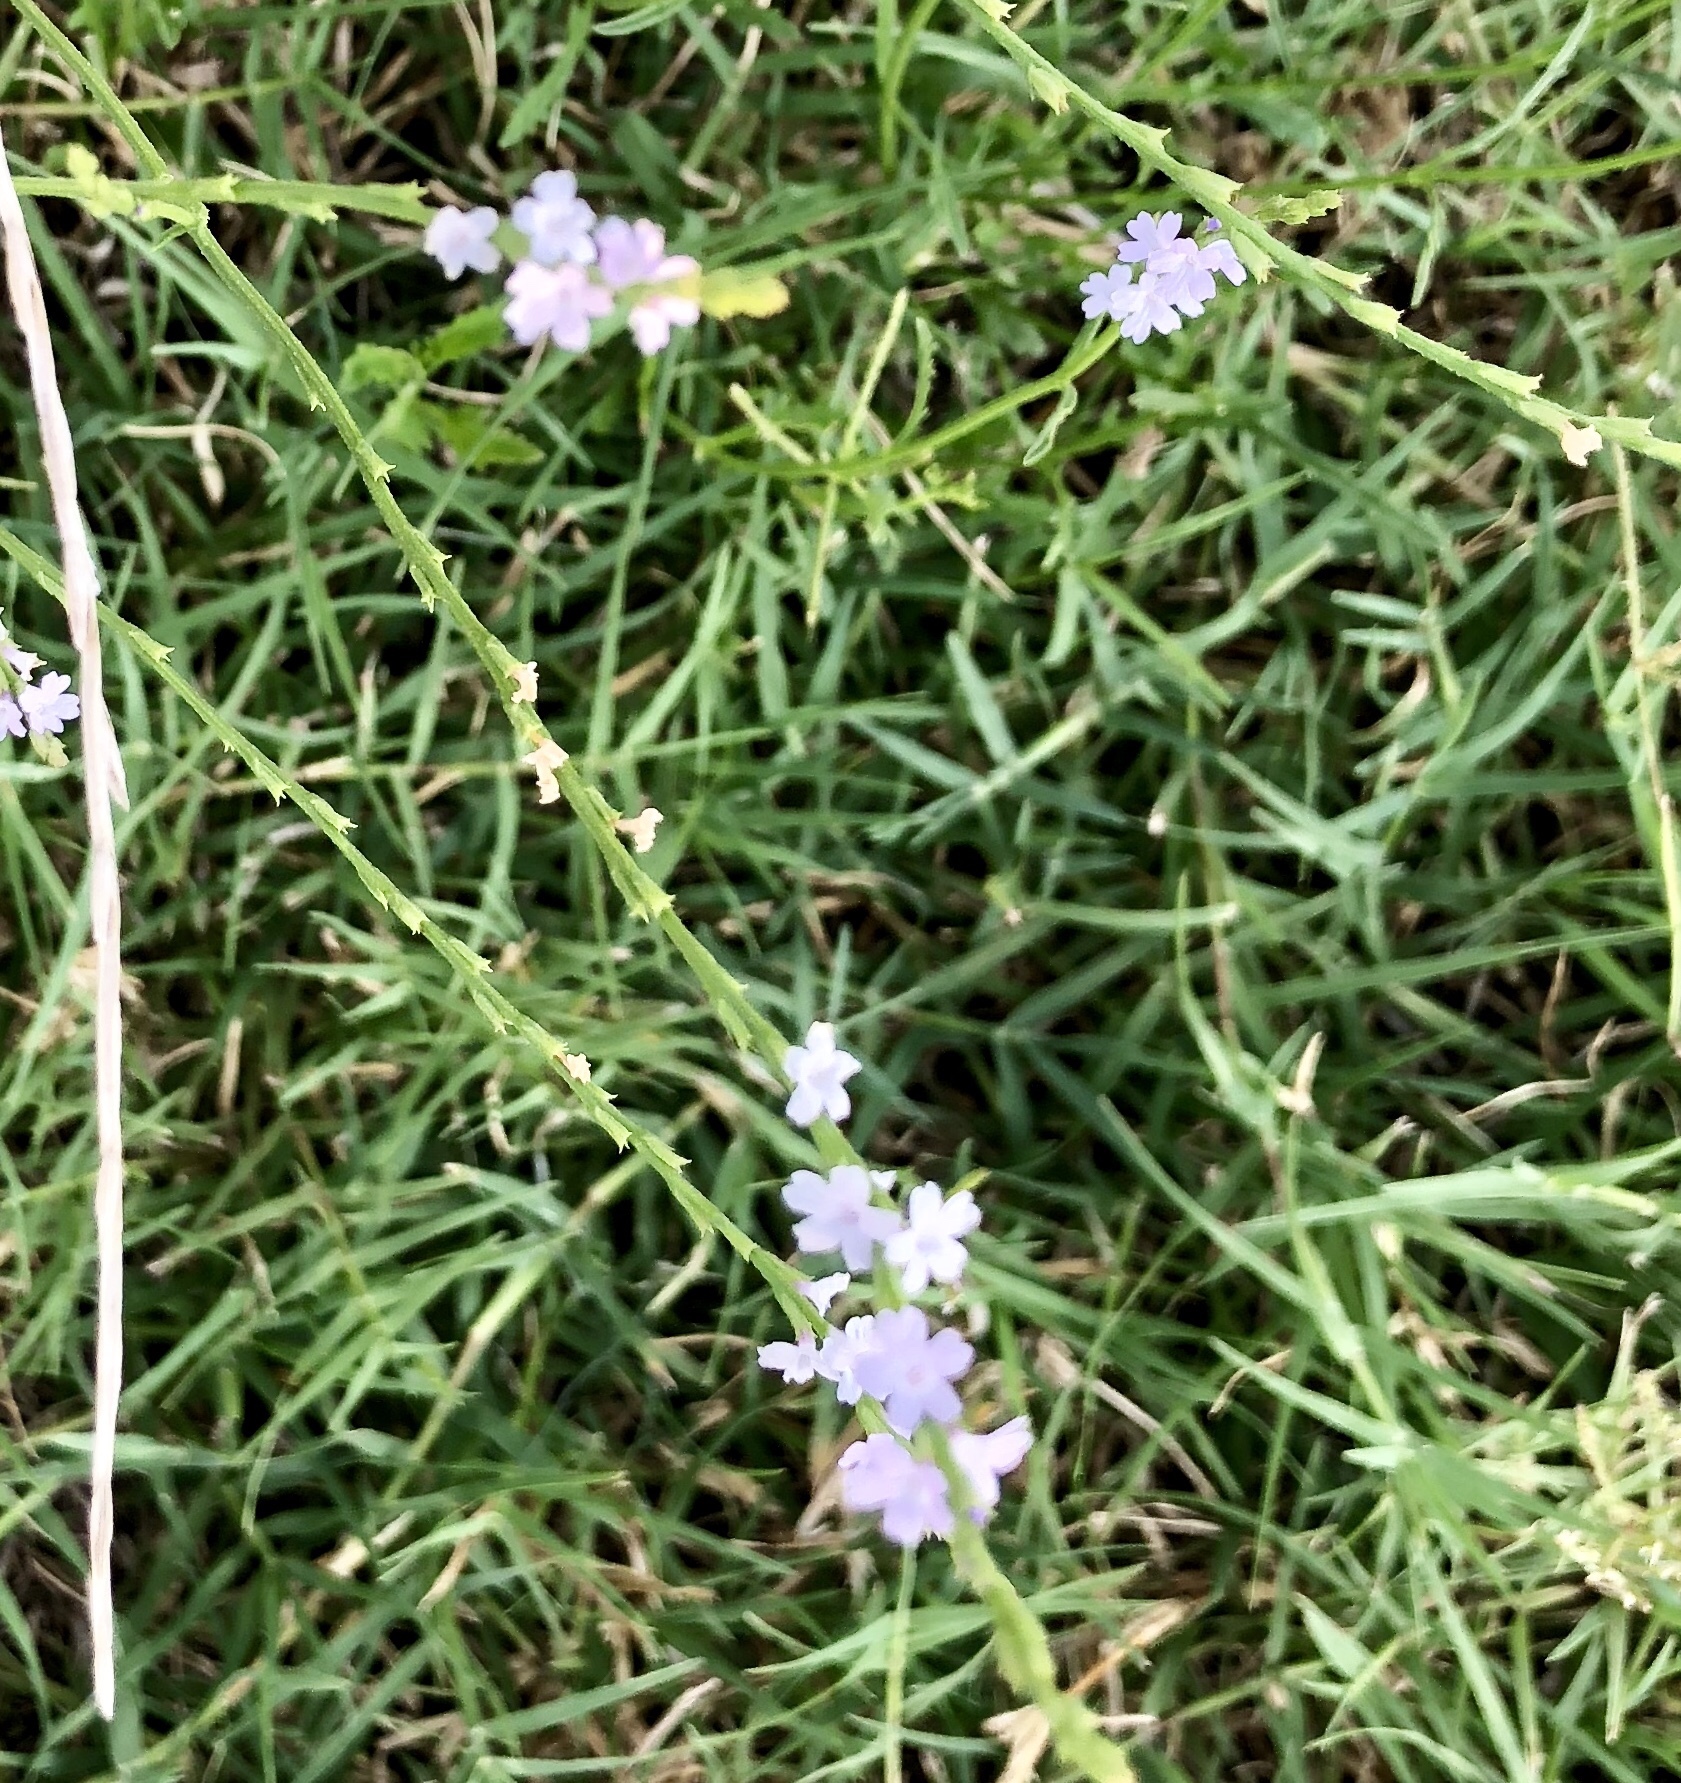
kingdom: Plantae
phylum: Tracheophyta
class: Magnoliopsida
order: Lamiales
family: Verbenaceae
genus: Verbena
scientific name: Verbena halei
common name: Texas vervain
